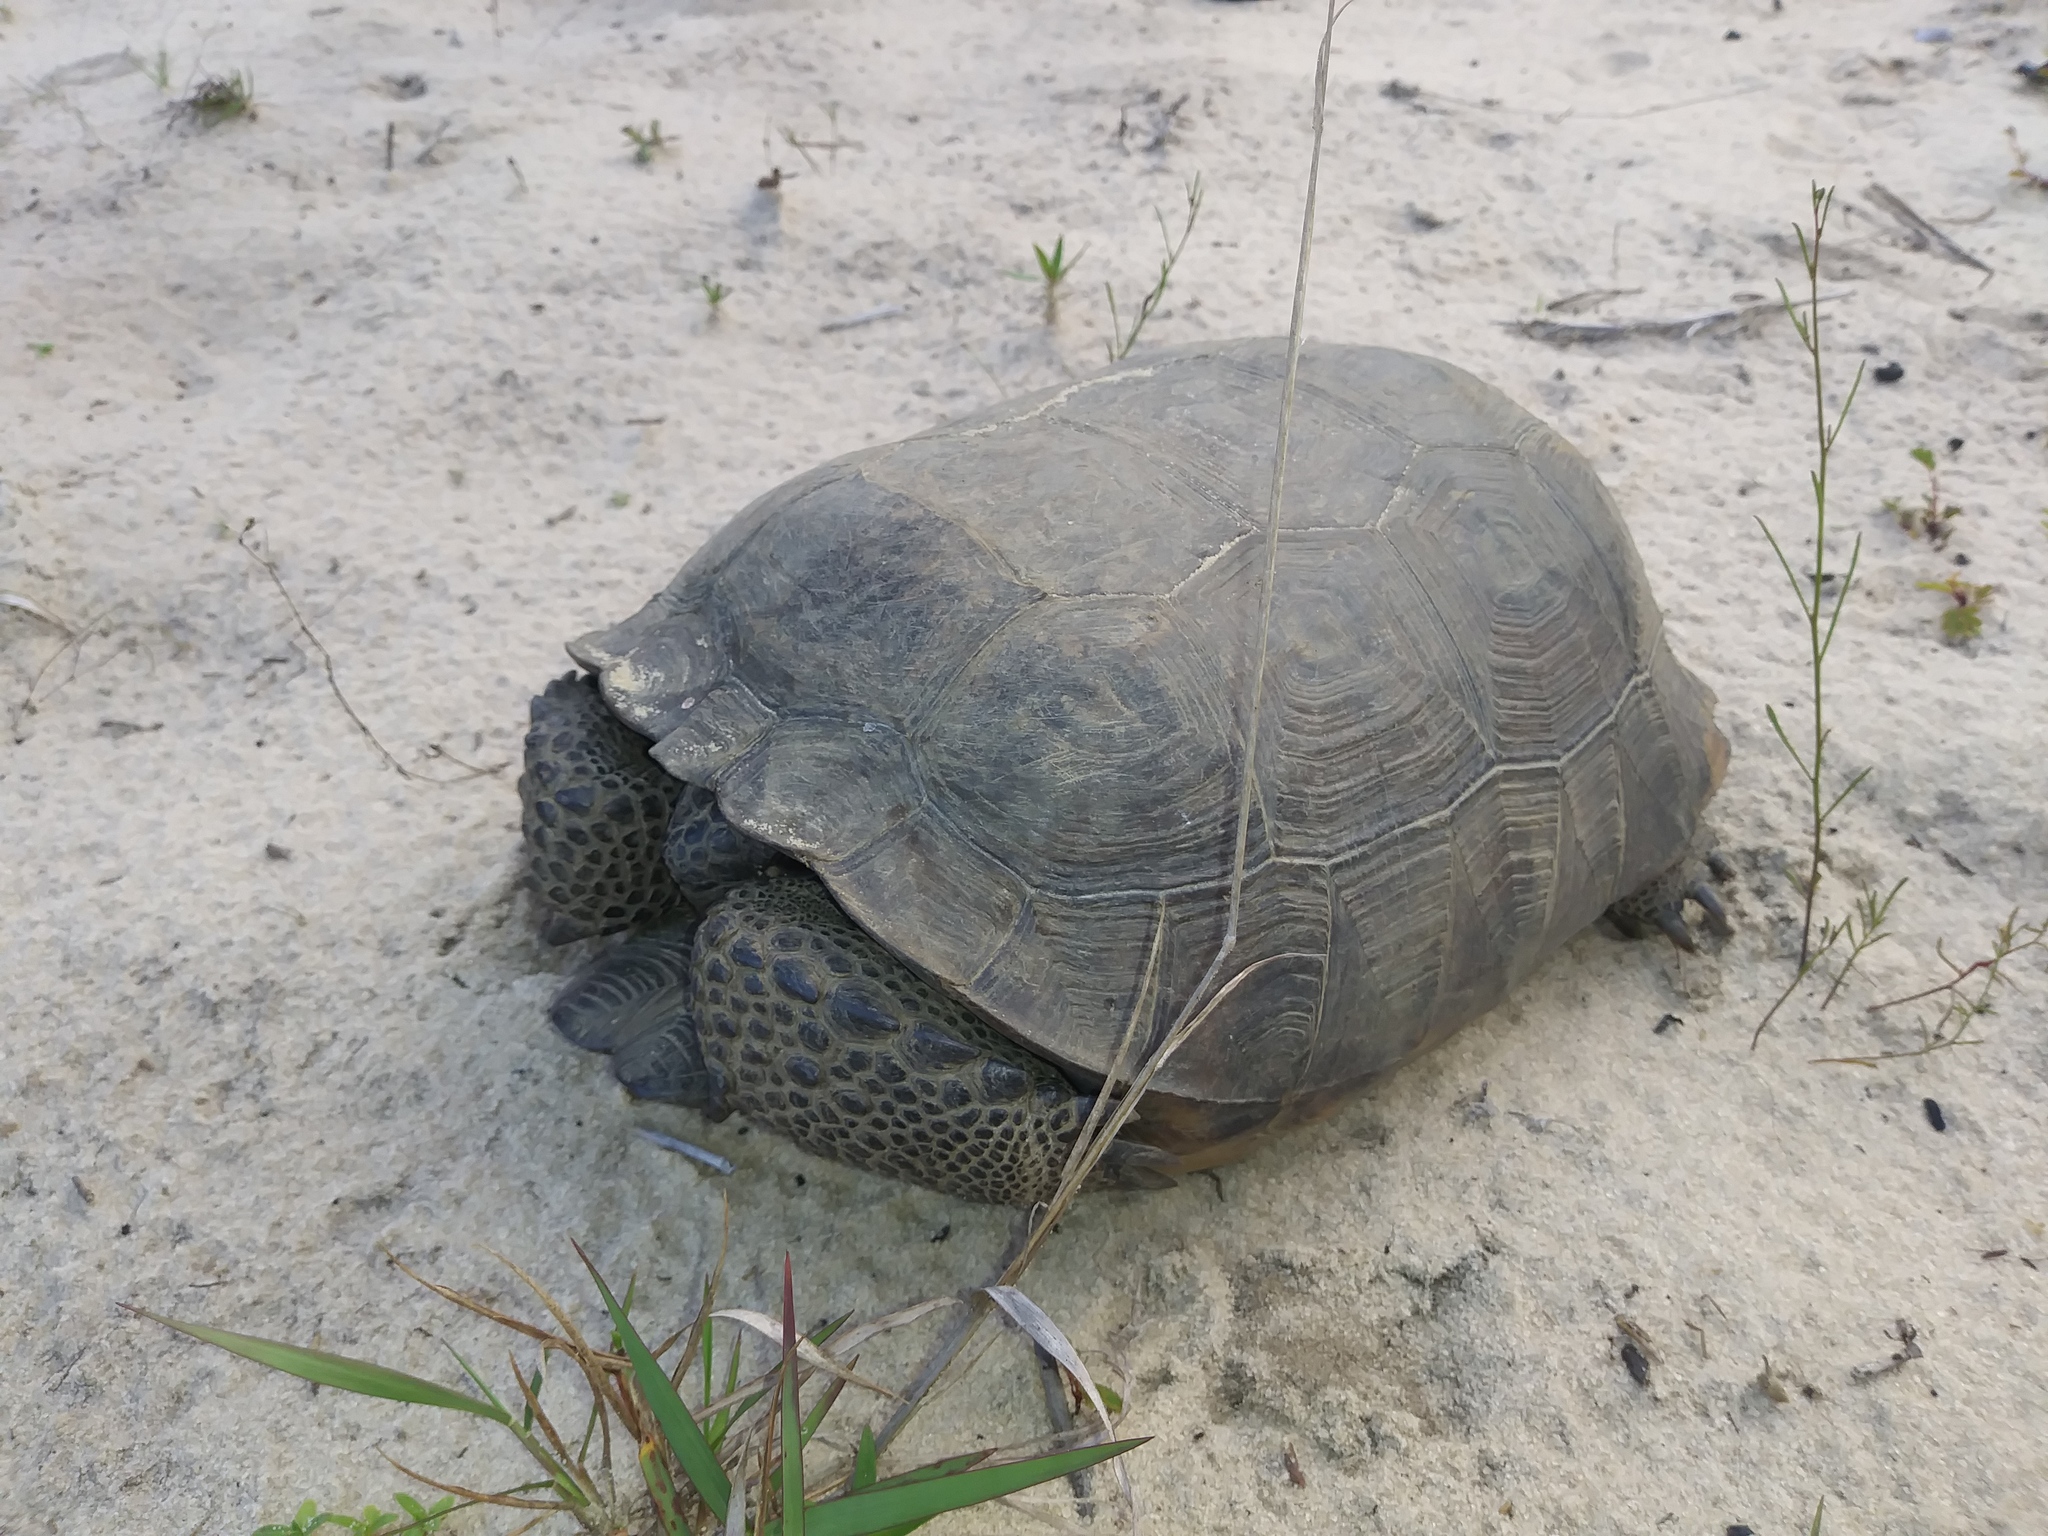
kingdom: Animalia
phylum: Chordata
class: Testudines
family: Testudinidae
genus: Gopherus
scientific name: Gopherus polyphemus
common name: Florida gopher tortoise
